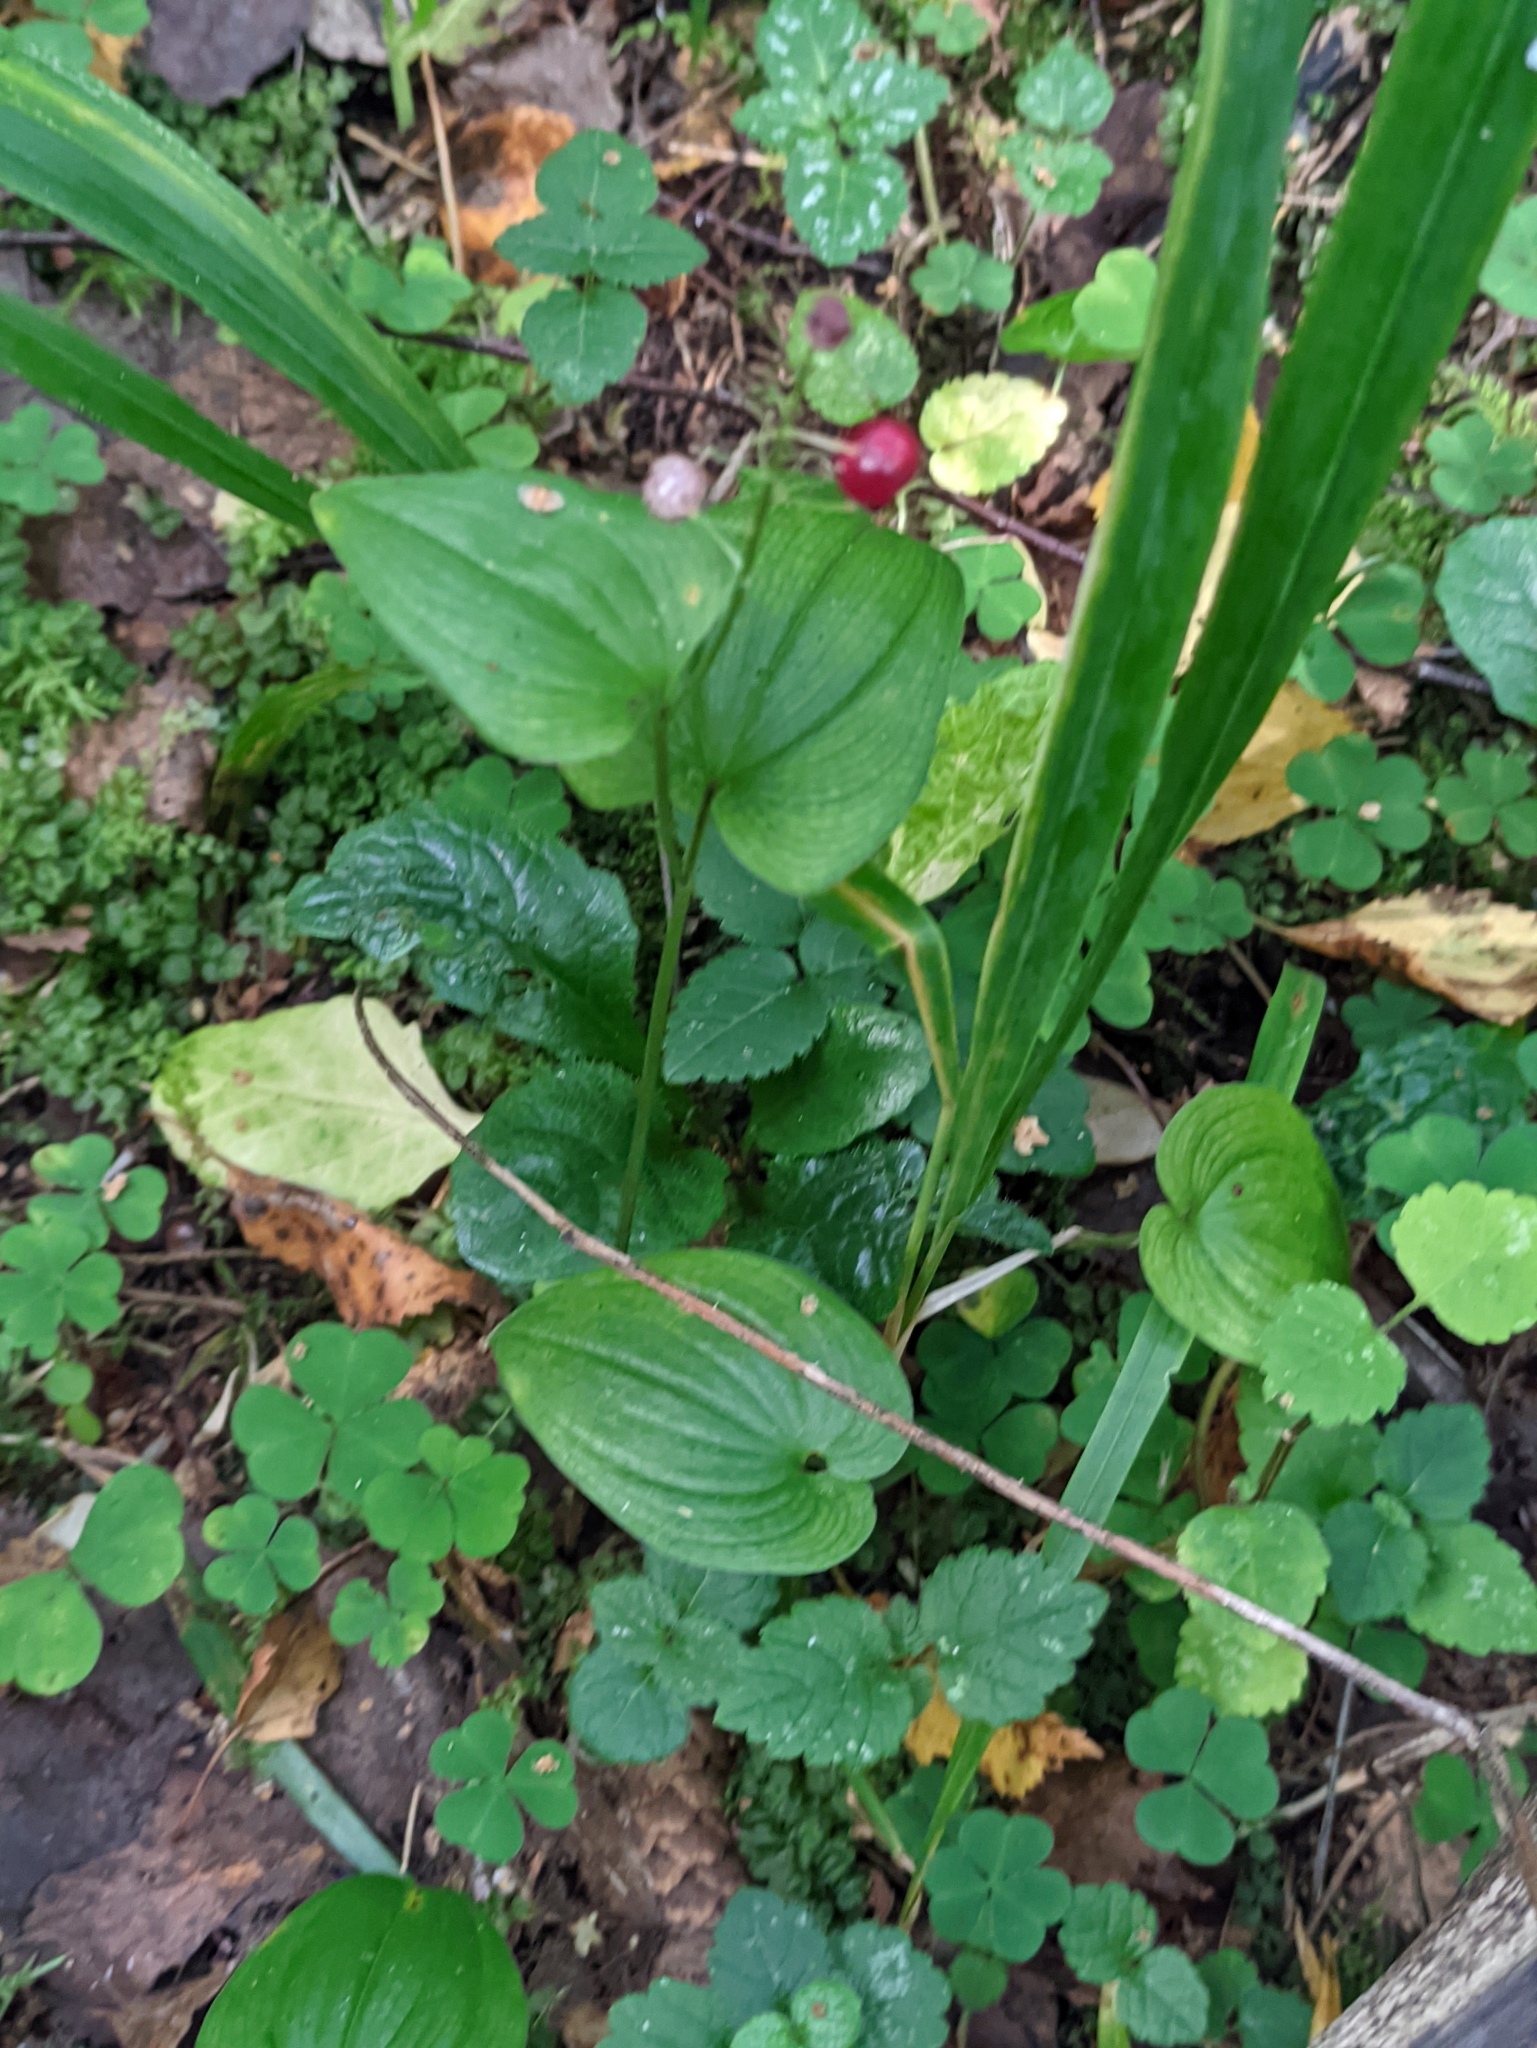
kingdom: Plantae
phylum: Tracheophyta
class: Liliopsida
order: Asparagales
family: Asparagaceae
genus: Maianthemum
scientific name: Maianthemum bifolium
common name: May lily
